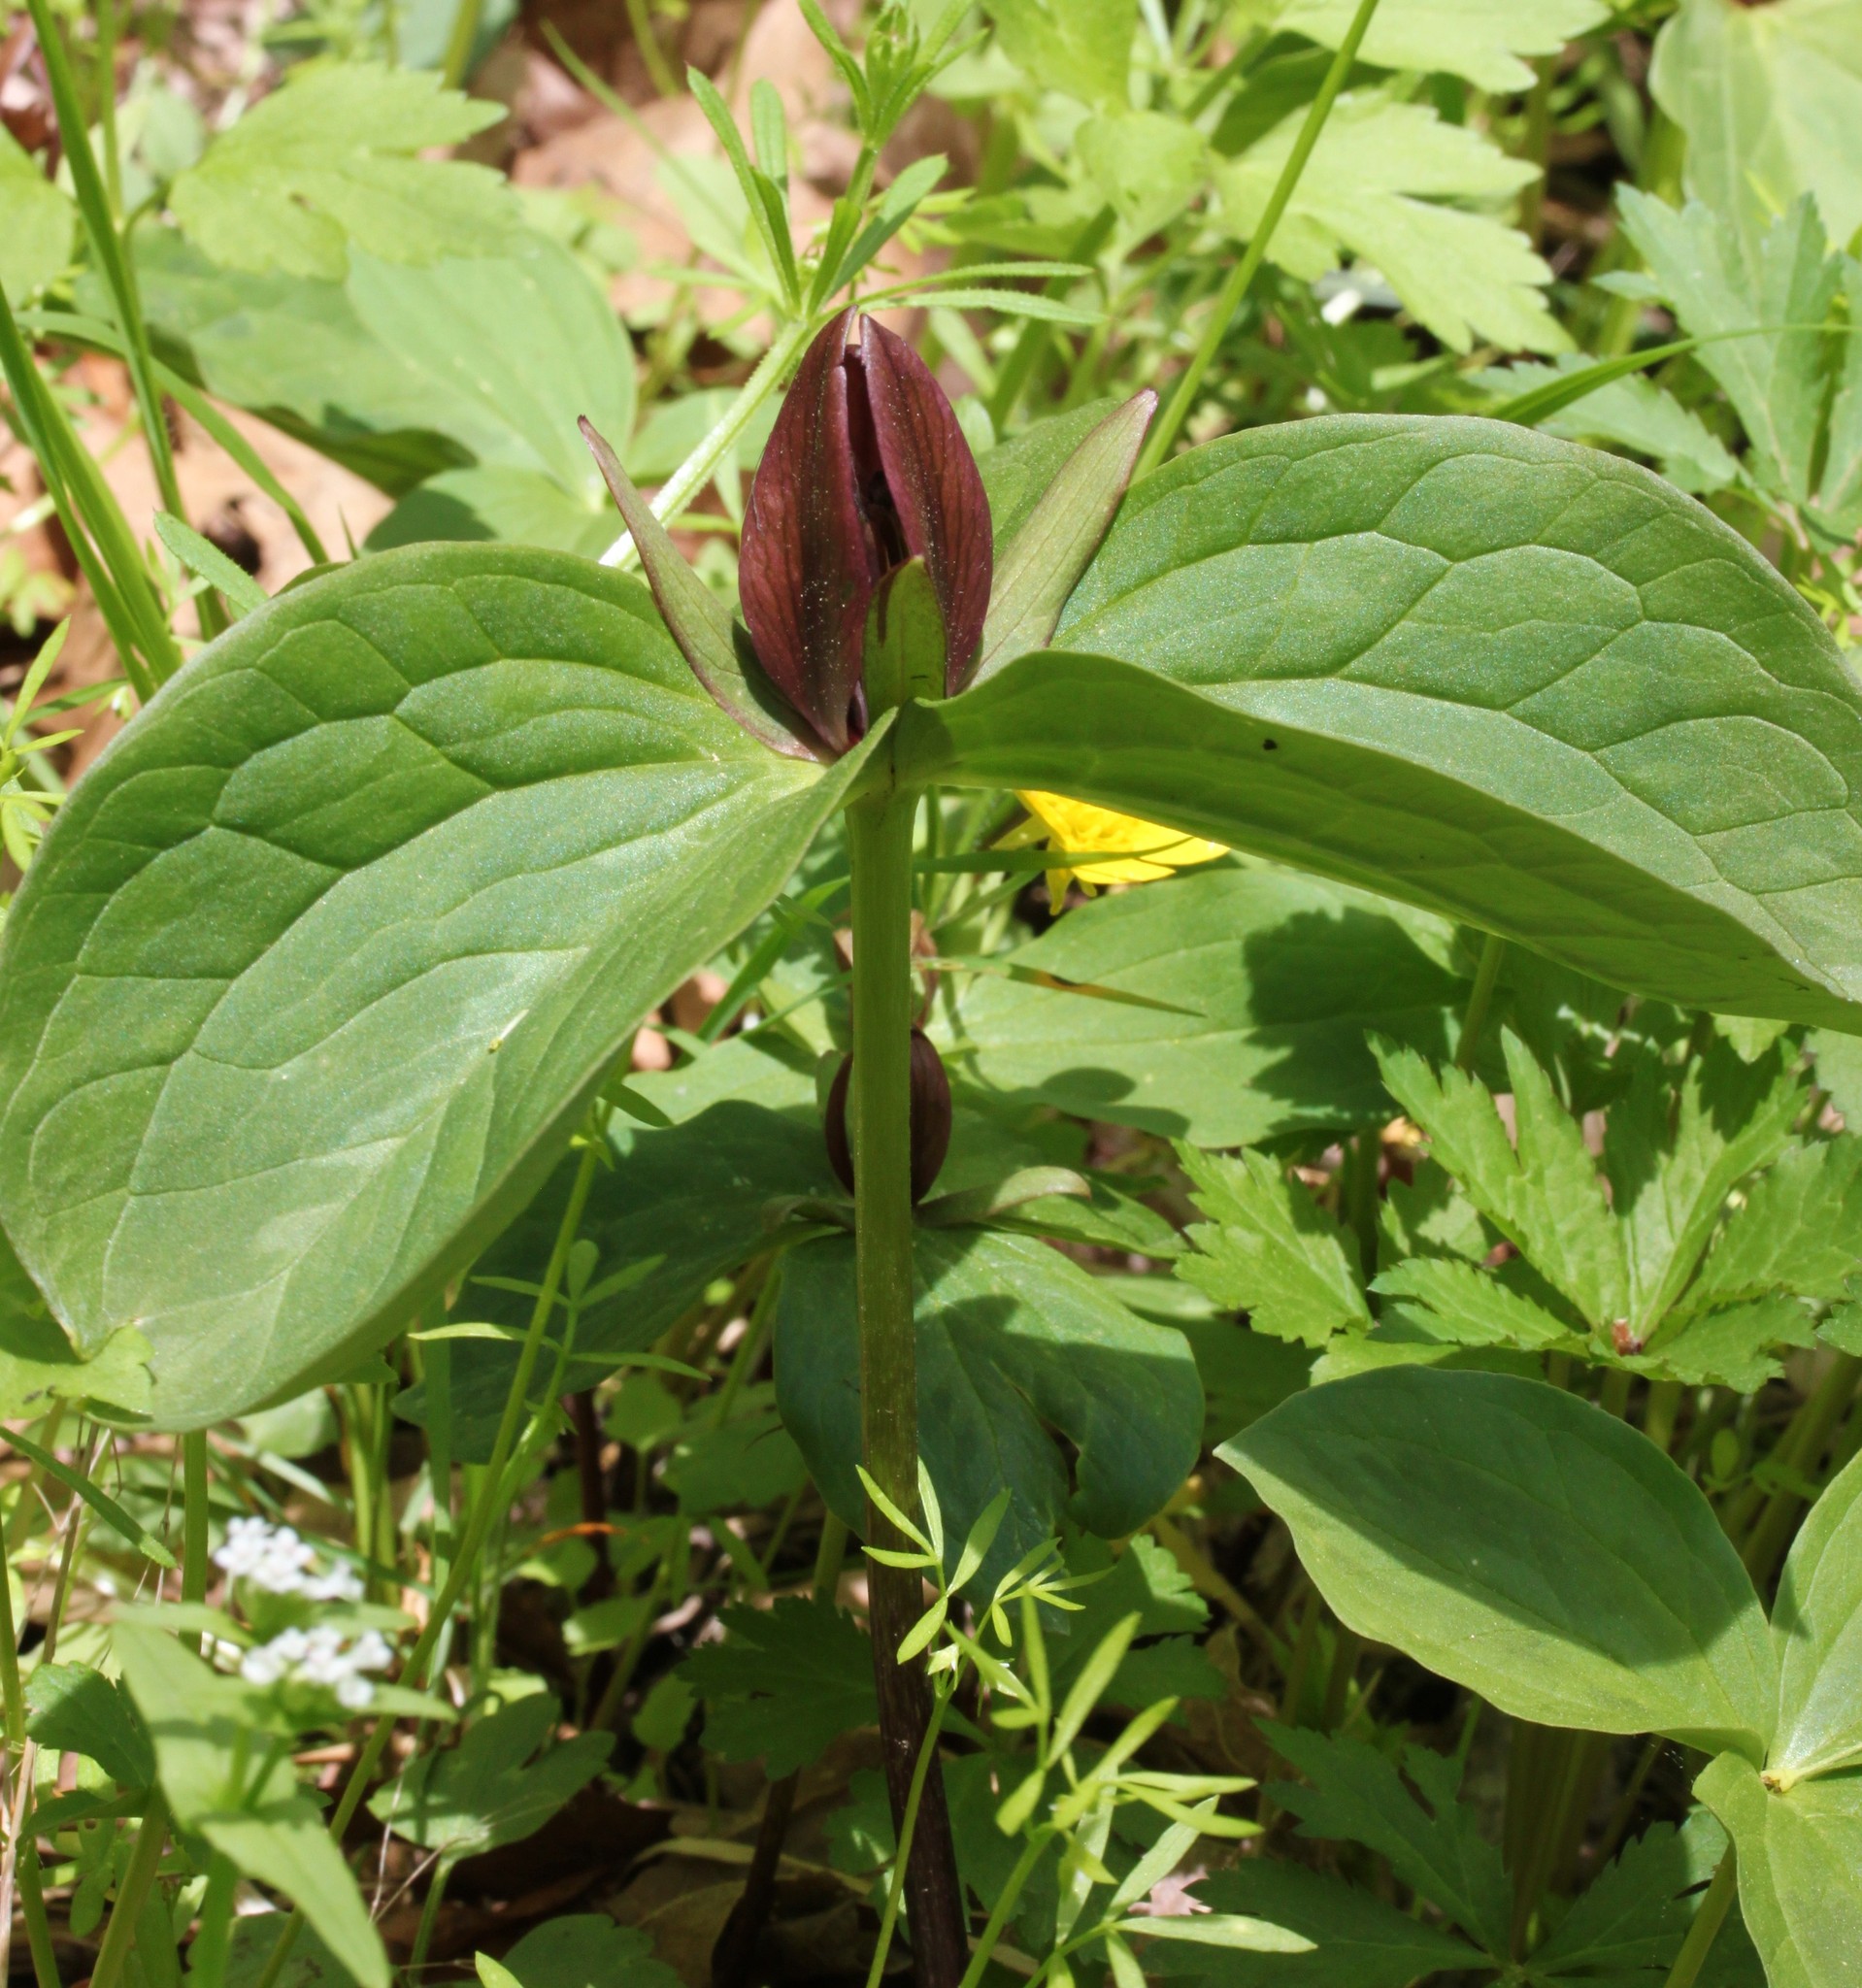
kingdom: Plantae
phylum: Tracheophyta
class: Liliopsida
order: Liliales
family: Melanthiaceae
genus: Trillium
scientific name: Trillium sessile
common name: Sessile trillium
